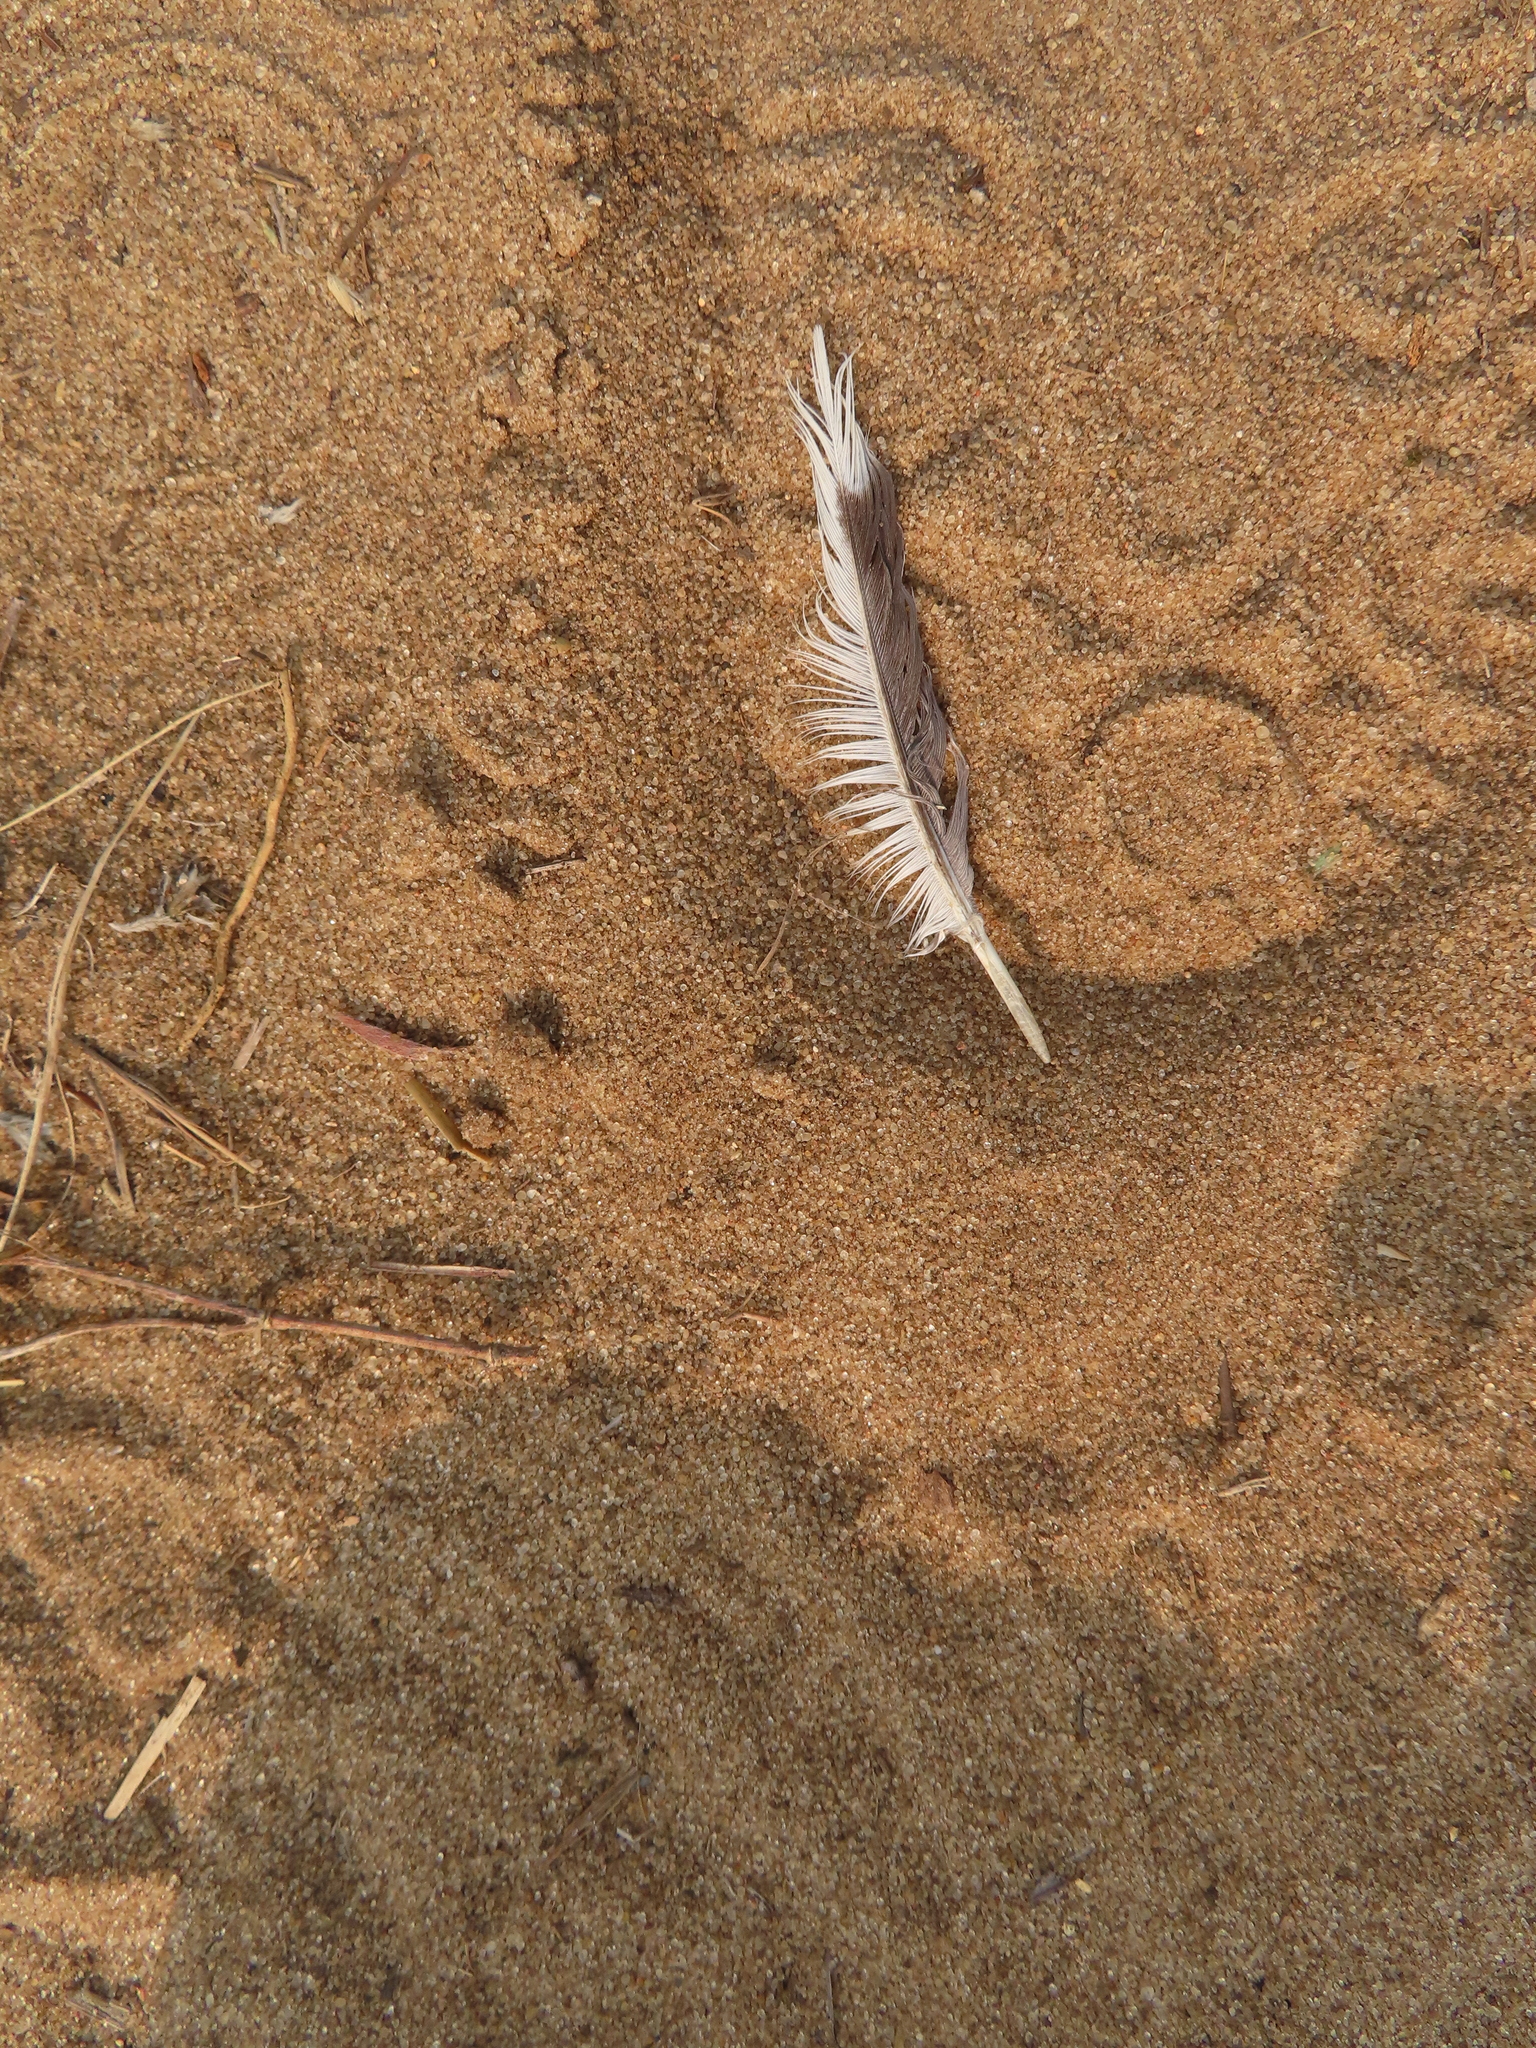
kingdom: Animalia
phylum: Chordata
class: Aves
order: Columbiformes
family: Columbidae
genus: Zenaida
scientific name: Zenaida macroura
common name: Mourning dove
